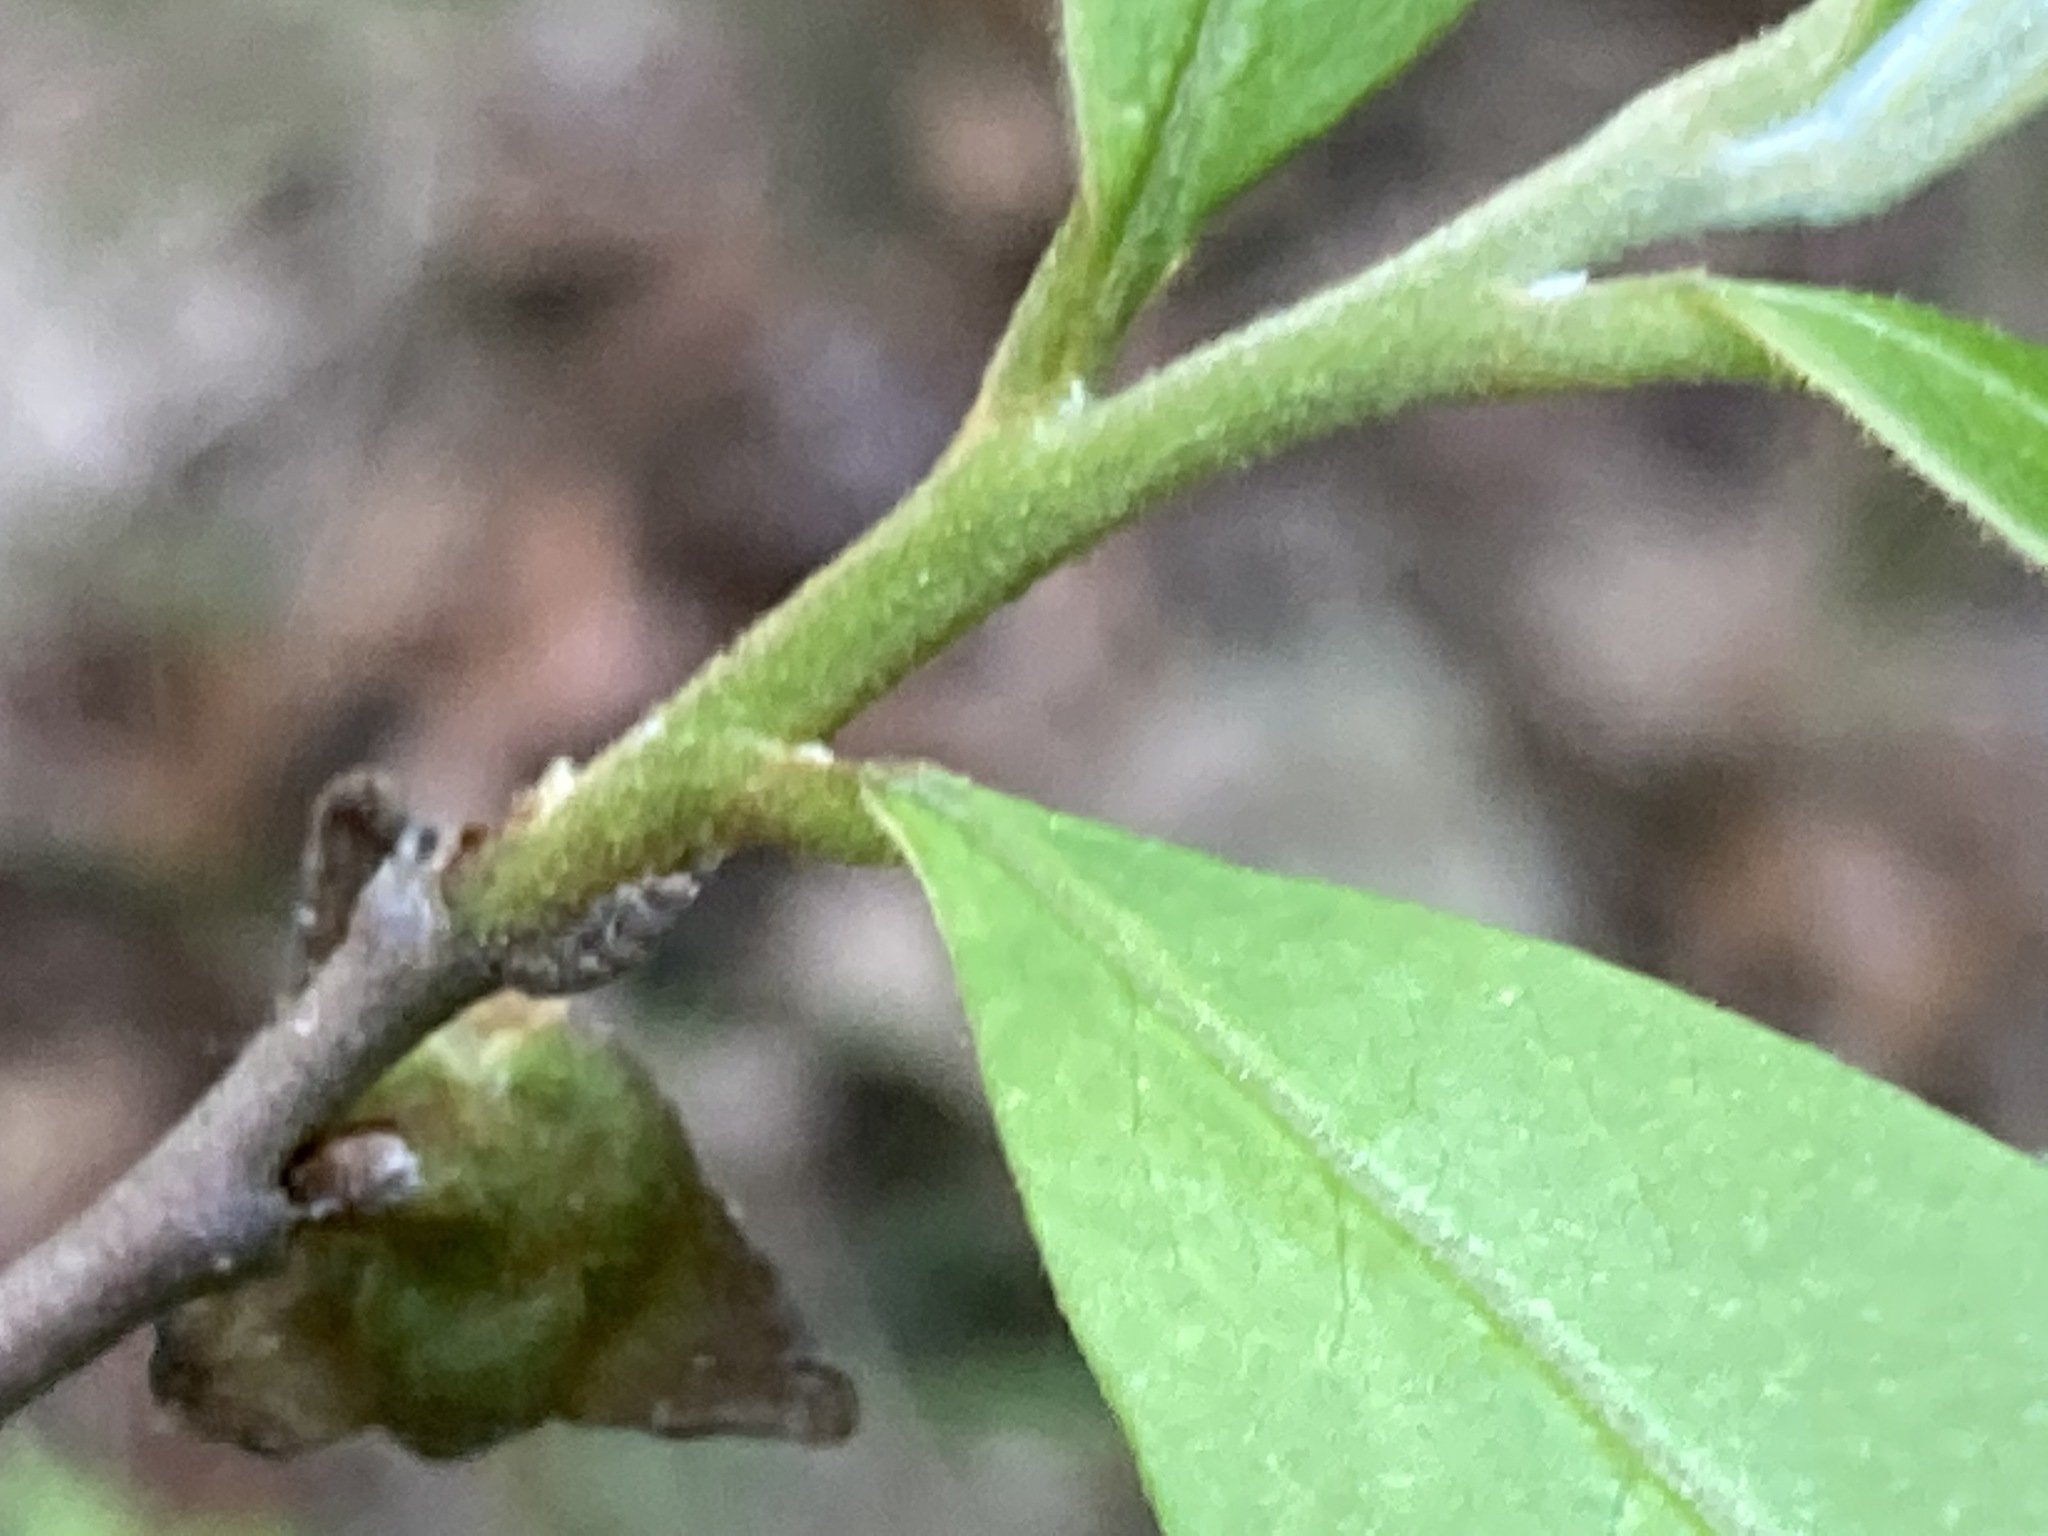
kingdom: Plantae
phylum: Tracheophyta
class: Magnoliopsida
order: Magnoliales
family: Annonaceae
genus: Asimina
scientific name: Asimina parviflora
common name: Dwarf pawpaw
